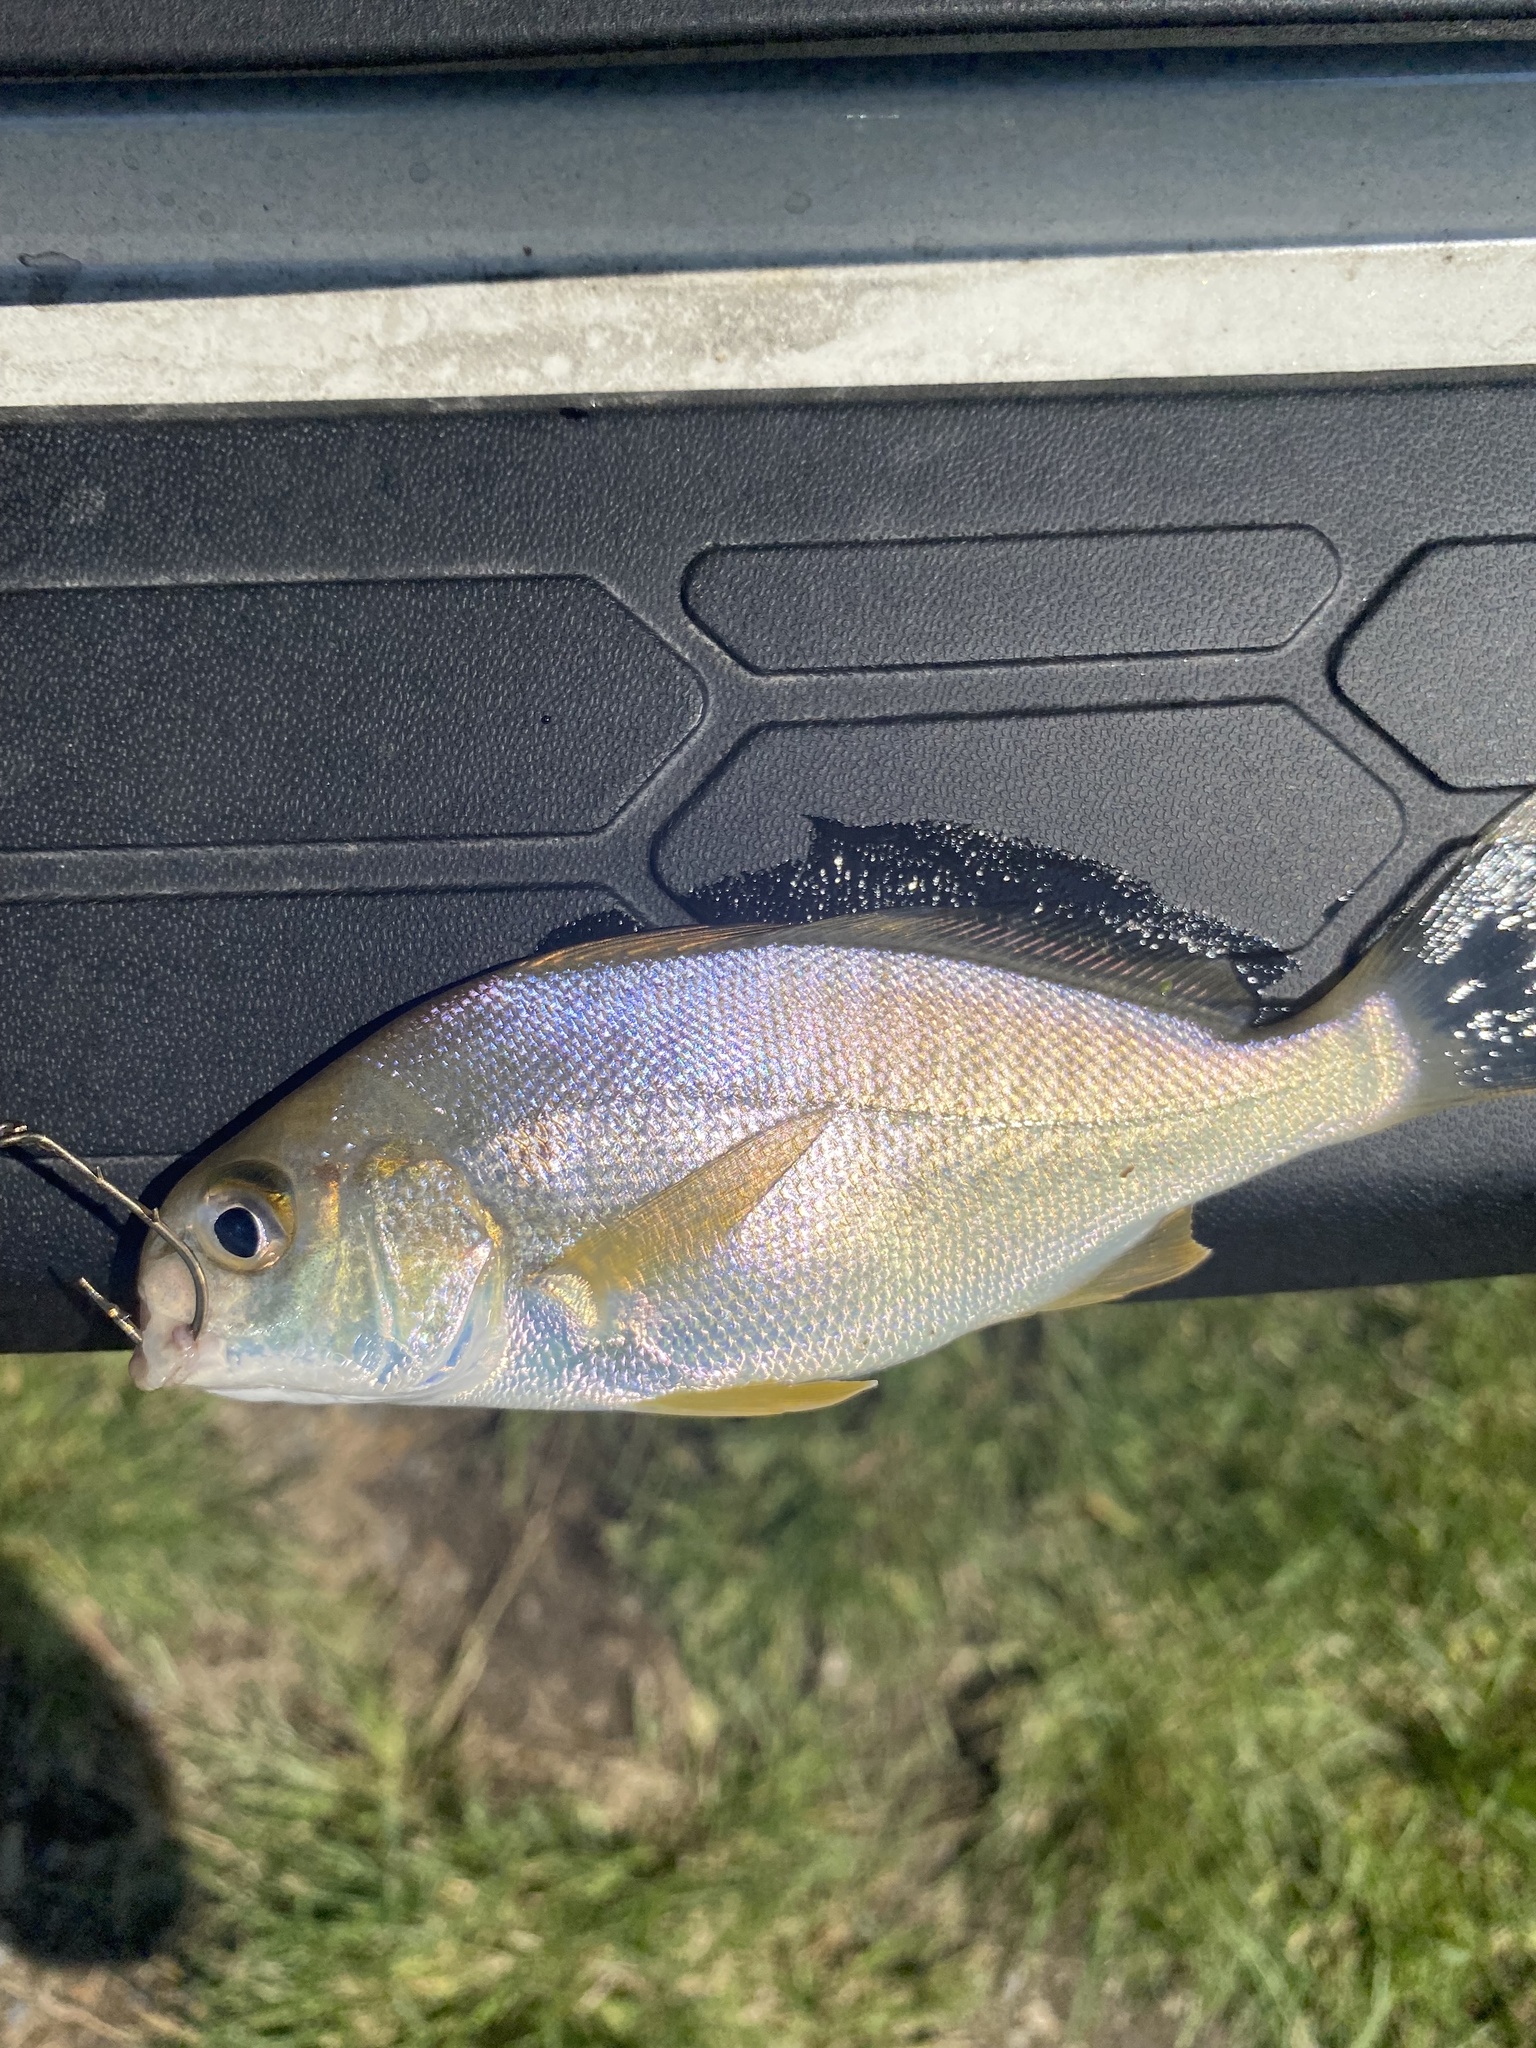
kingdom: Animalia
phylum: Chordata
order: Perciformes
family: Sciaenidae
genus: Leiostomus
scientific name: Leiostomus xanthurus
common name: Spot
